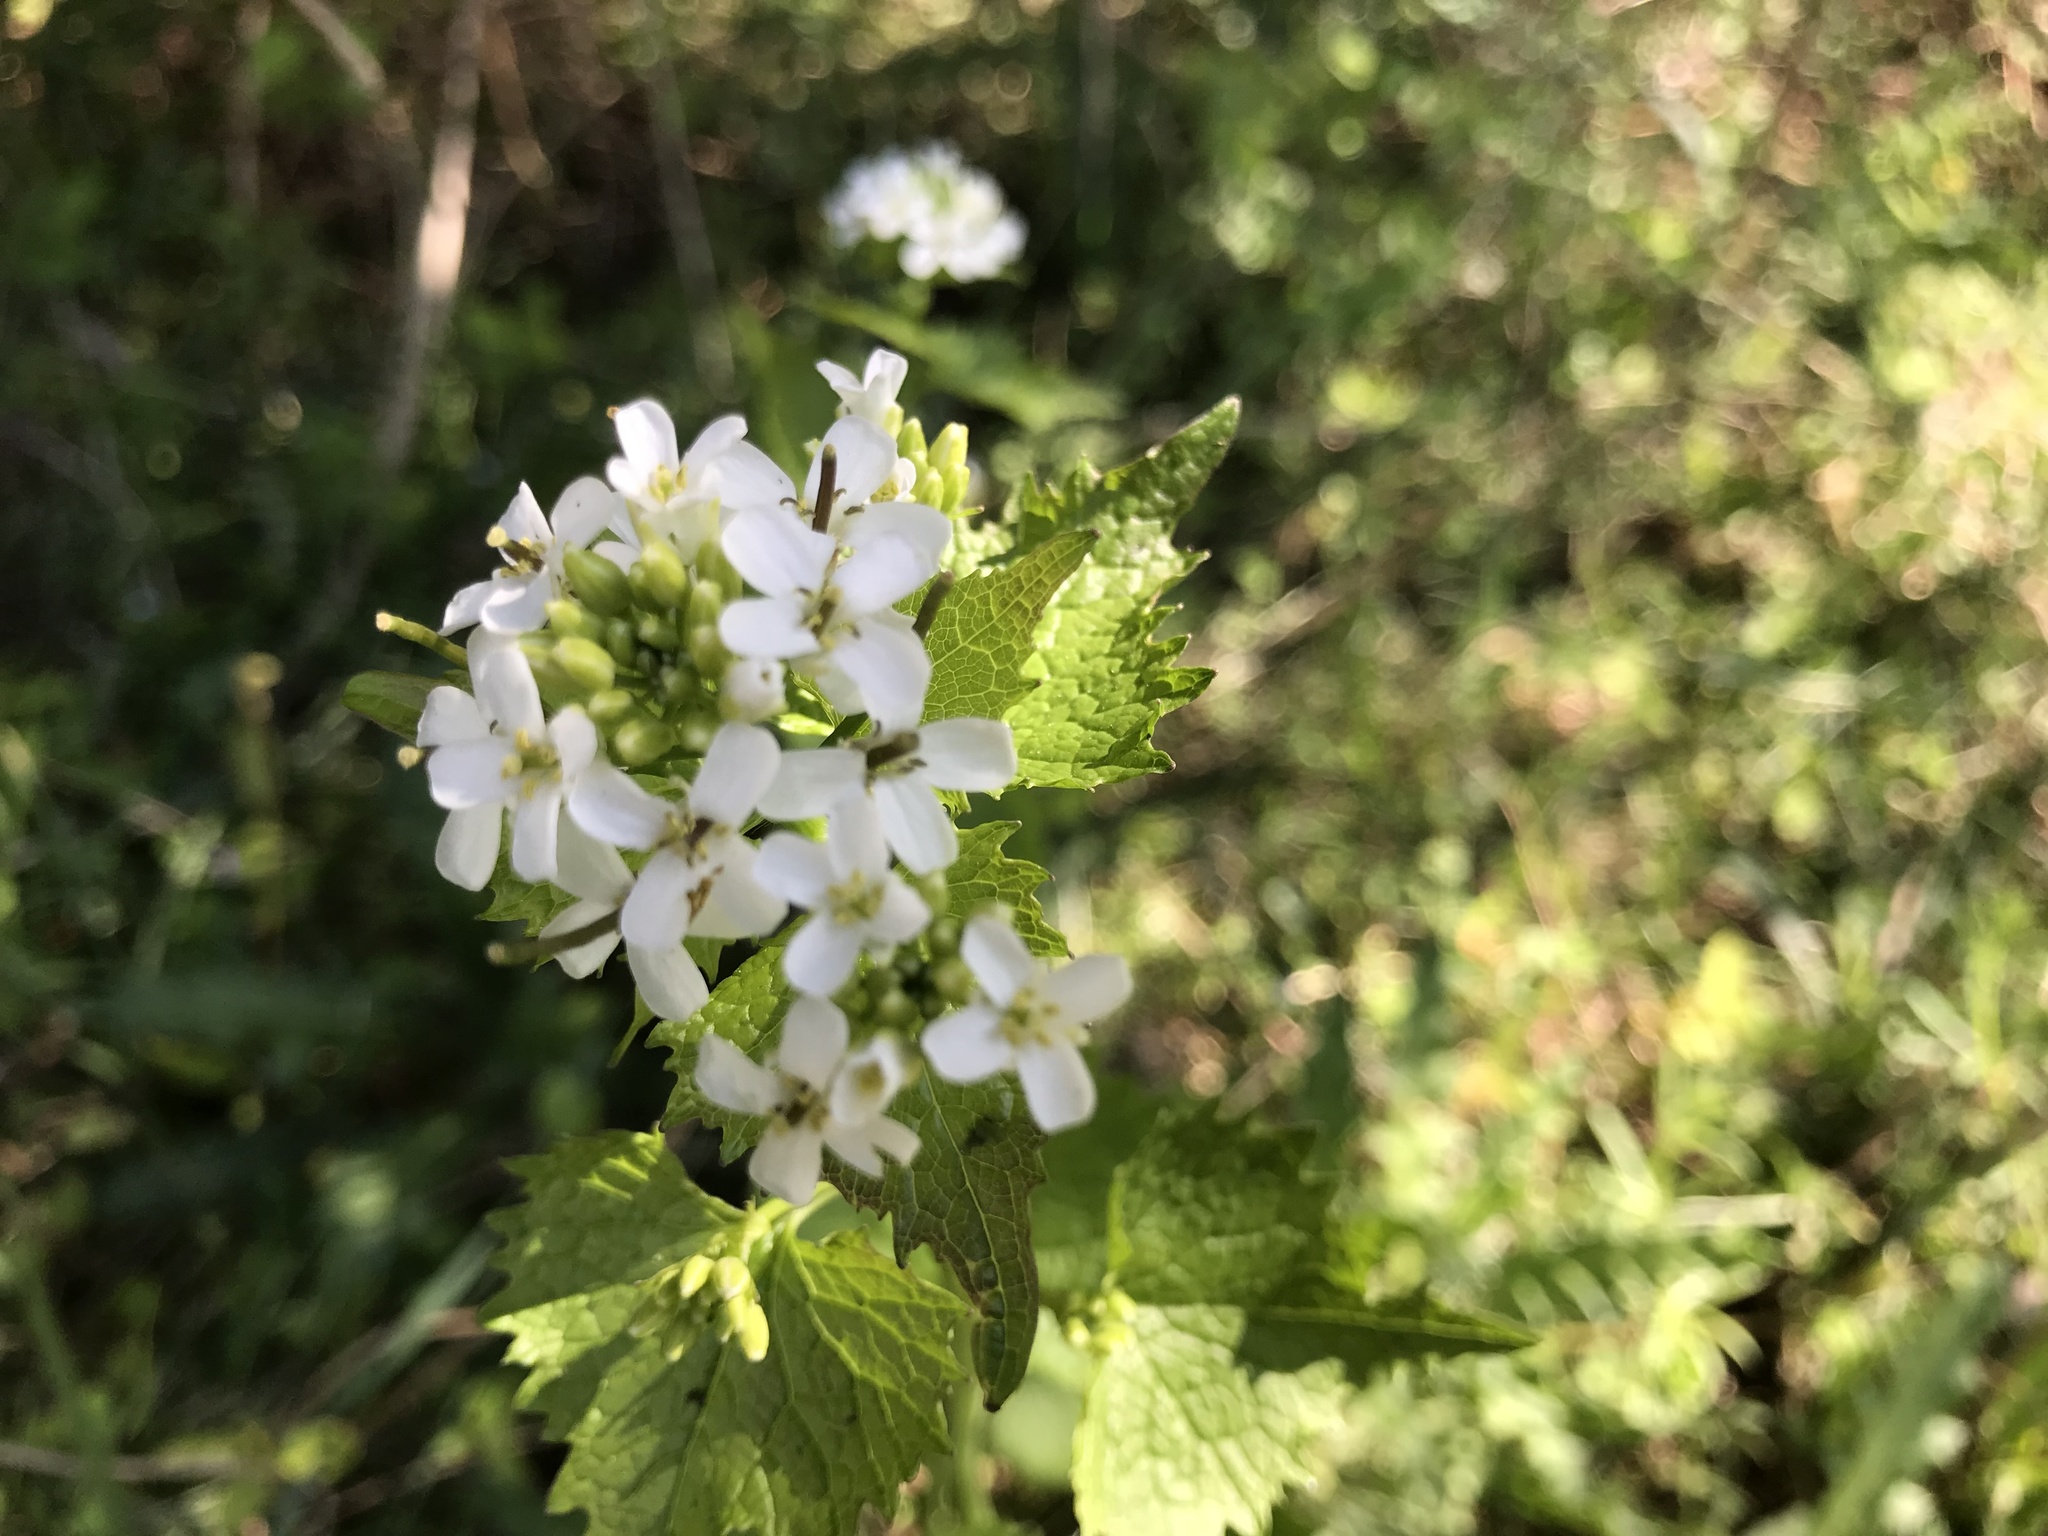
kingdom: Plantae
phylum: Tracheophyta
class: Magnoliopsida
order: Brassicales
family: Brassicaceae
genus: Alliaria
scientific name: Alliaria petiolata
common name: Garlic mustard
